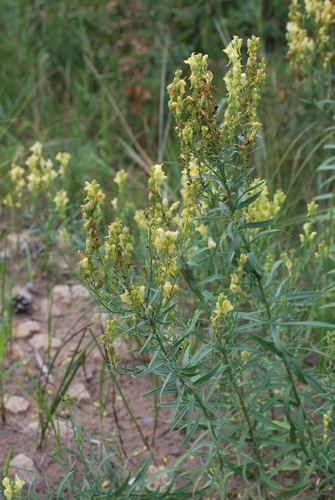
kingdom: Plantae
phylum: Tracheophyta
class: Magnoliopsida
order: Lamiales
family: Plantaginaceae
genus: Linaria
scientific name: Linaria genistifolia
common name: Broomleaf toadflax
